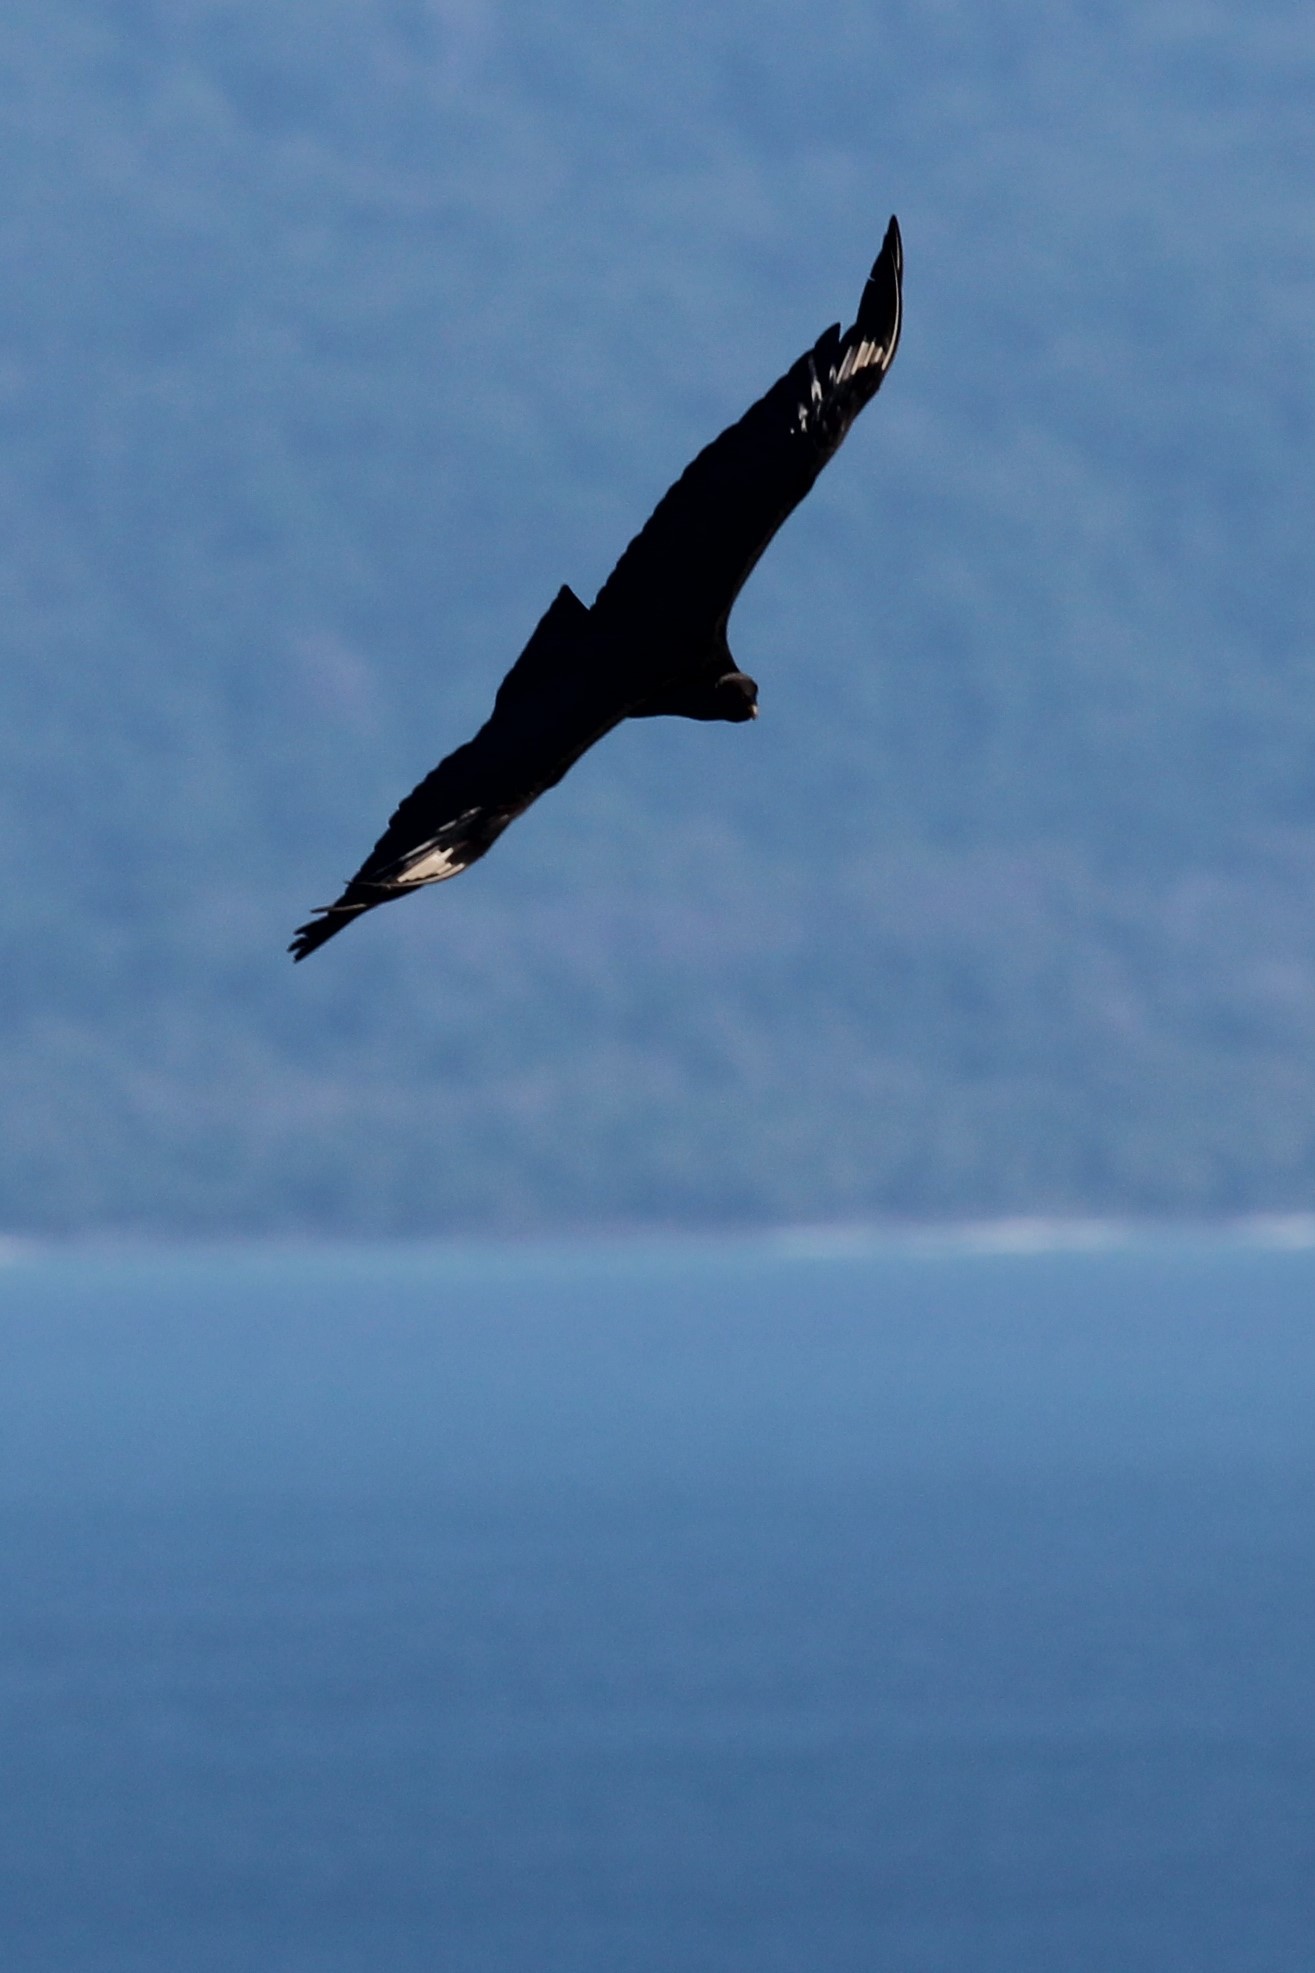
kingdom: Animalia
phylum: Chordata
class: Aves
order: Accipitriformes
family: Cathartidae
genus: Coragyps
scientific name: Coragyps atratus
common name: Black vulture
